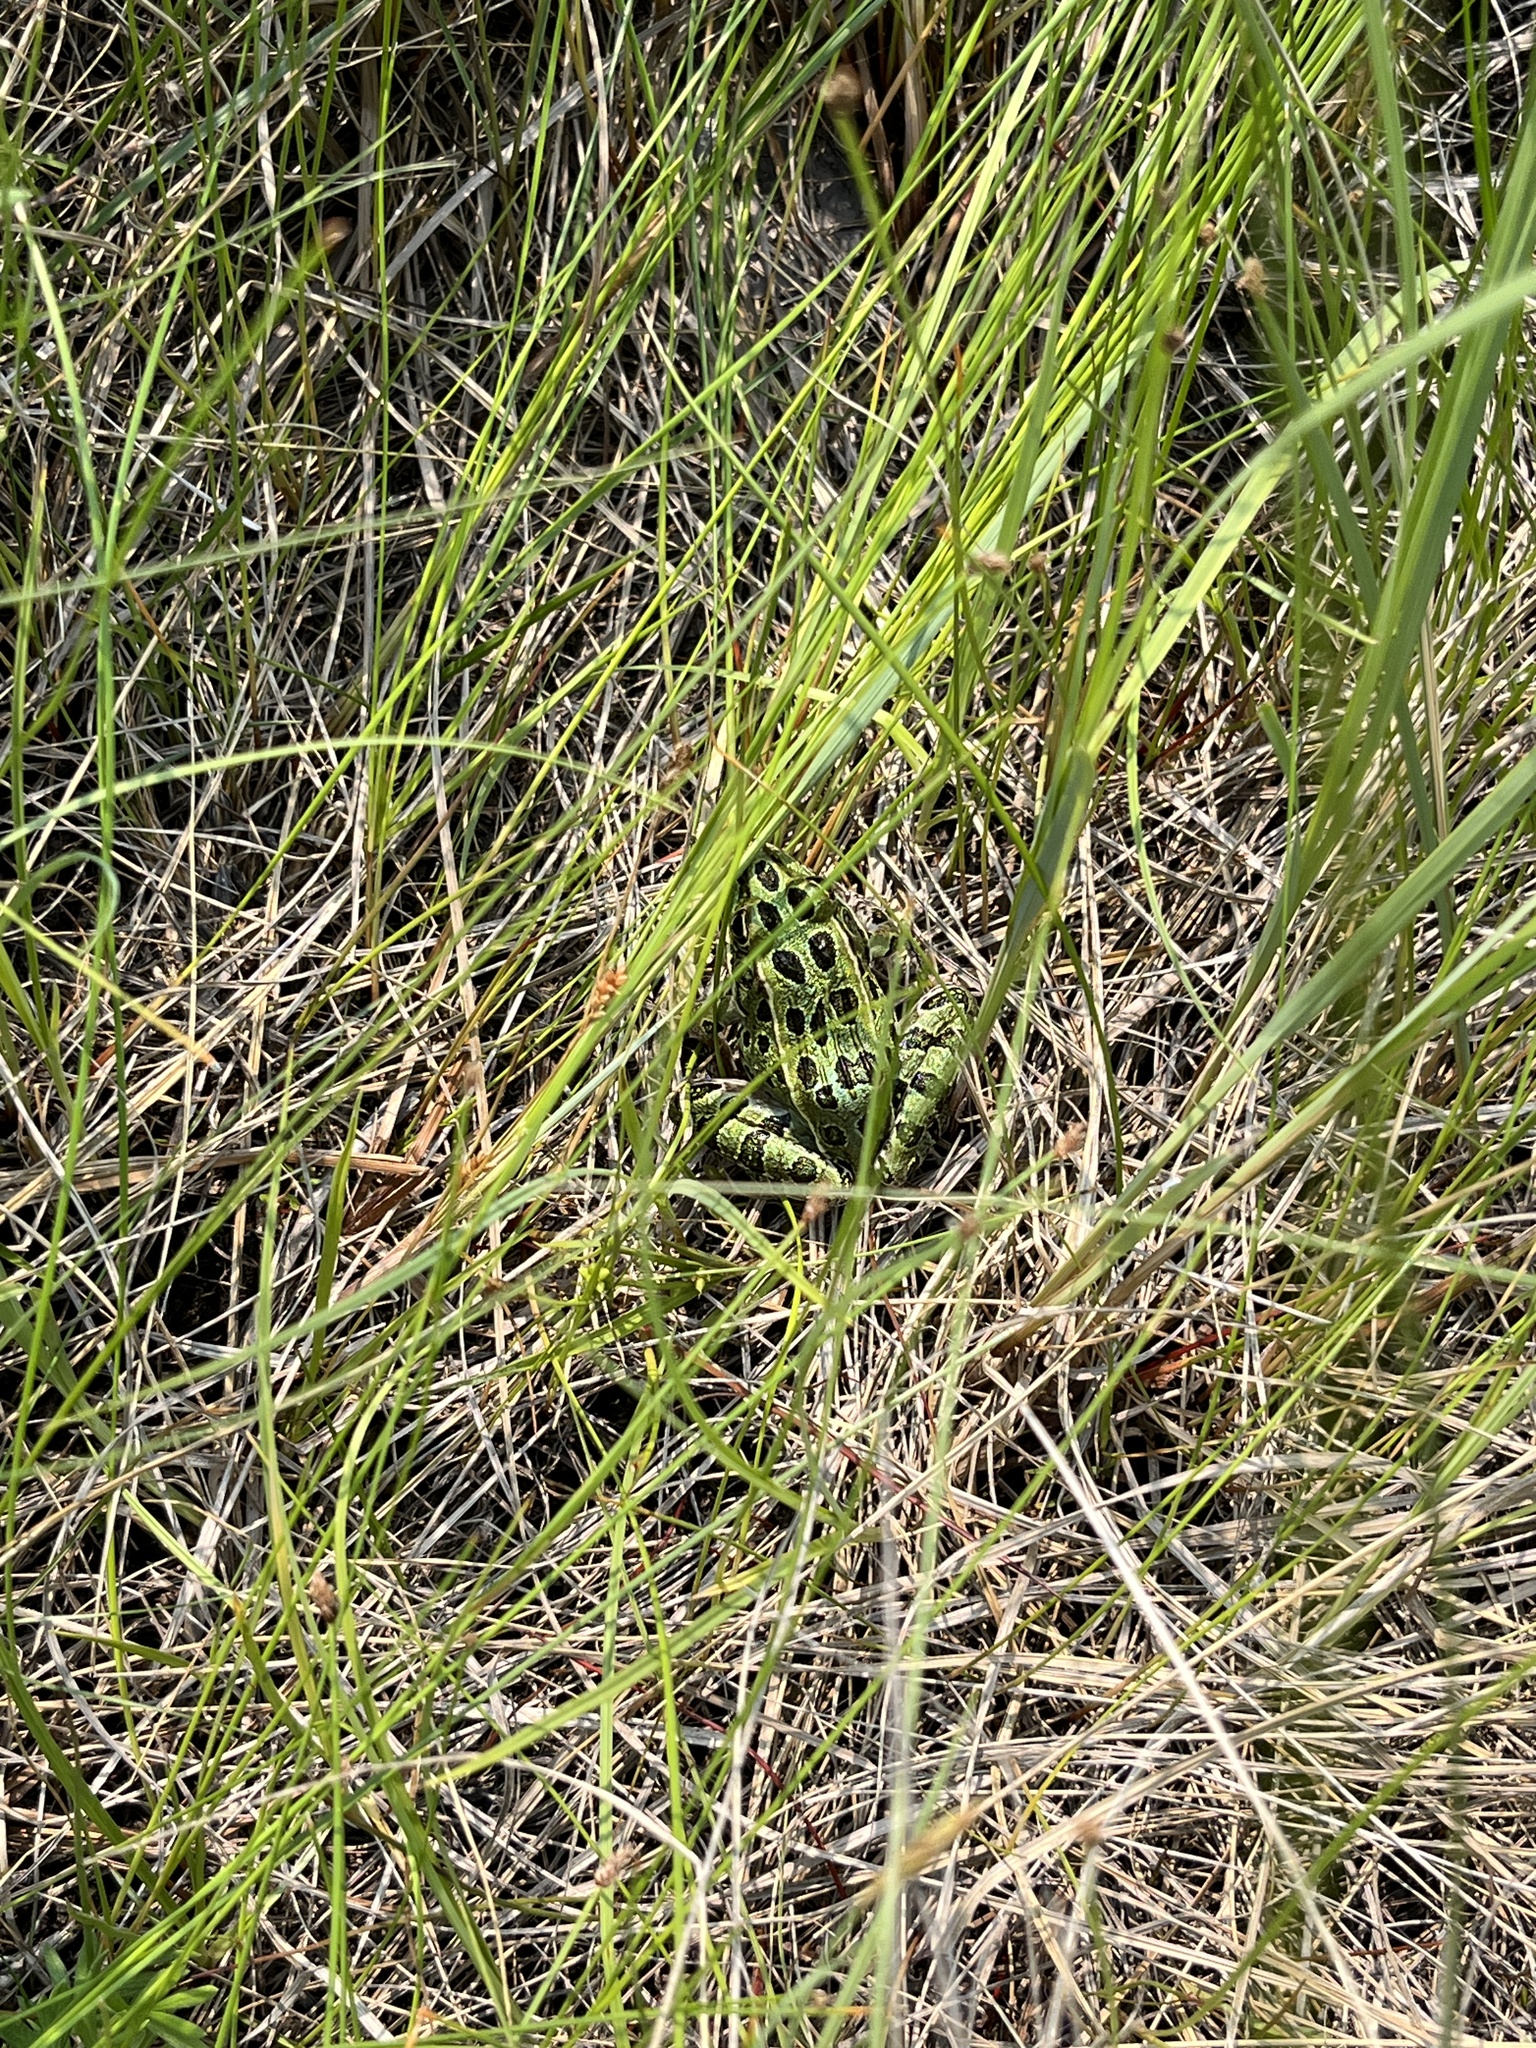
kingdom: Animalia
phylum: Chordata
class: Amphibia
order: Anura
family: Ranidae
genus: Lithobates
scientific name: Lithobates pipiens
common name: Northern leopard frog
